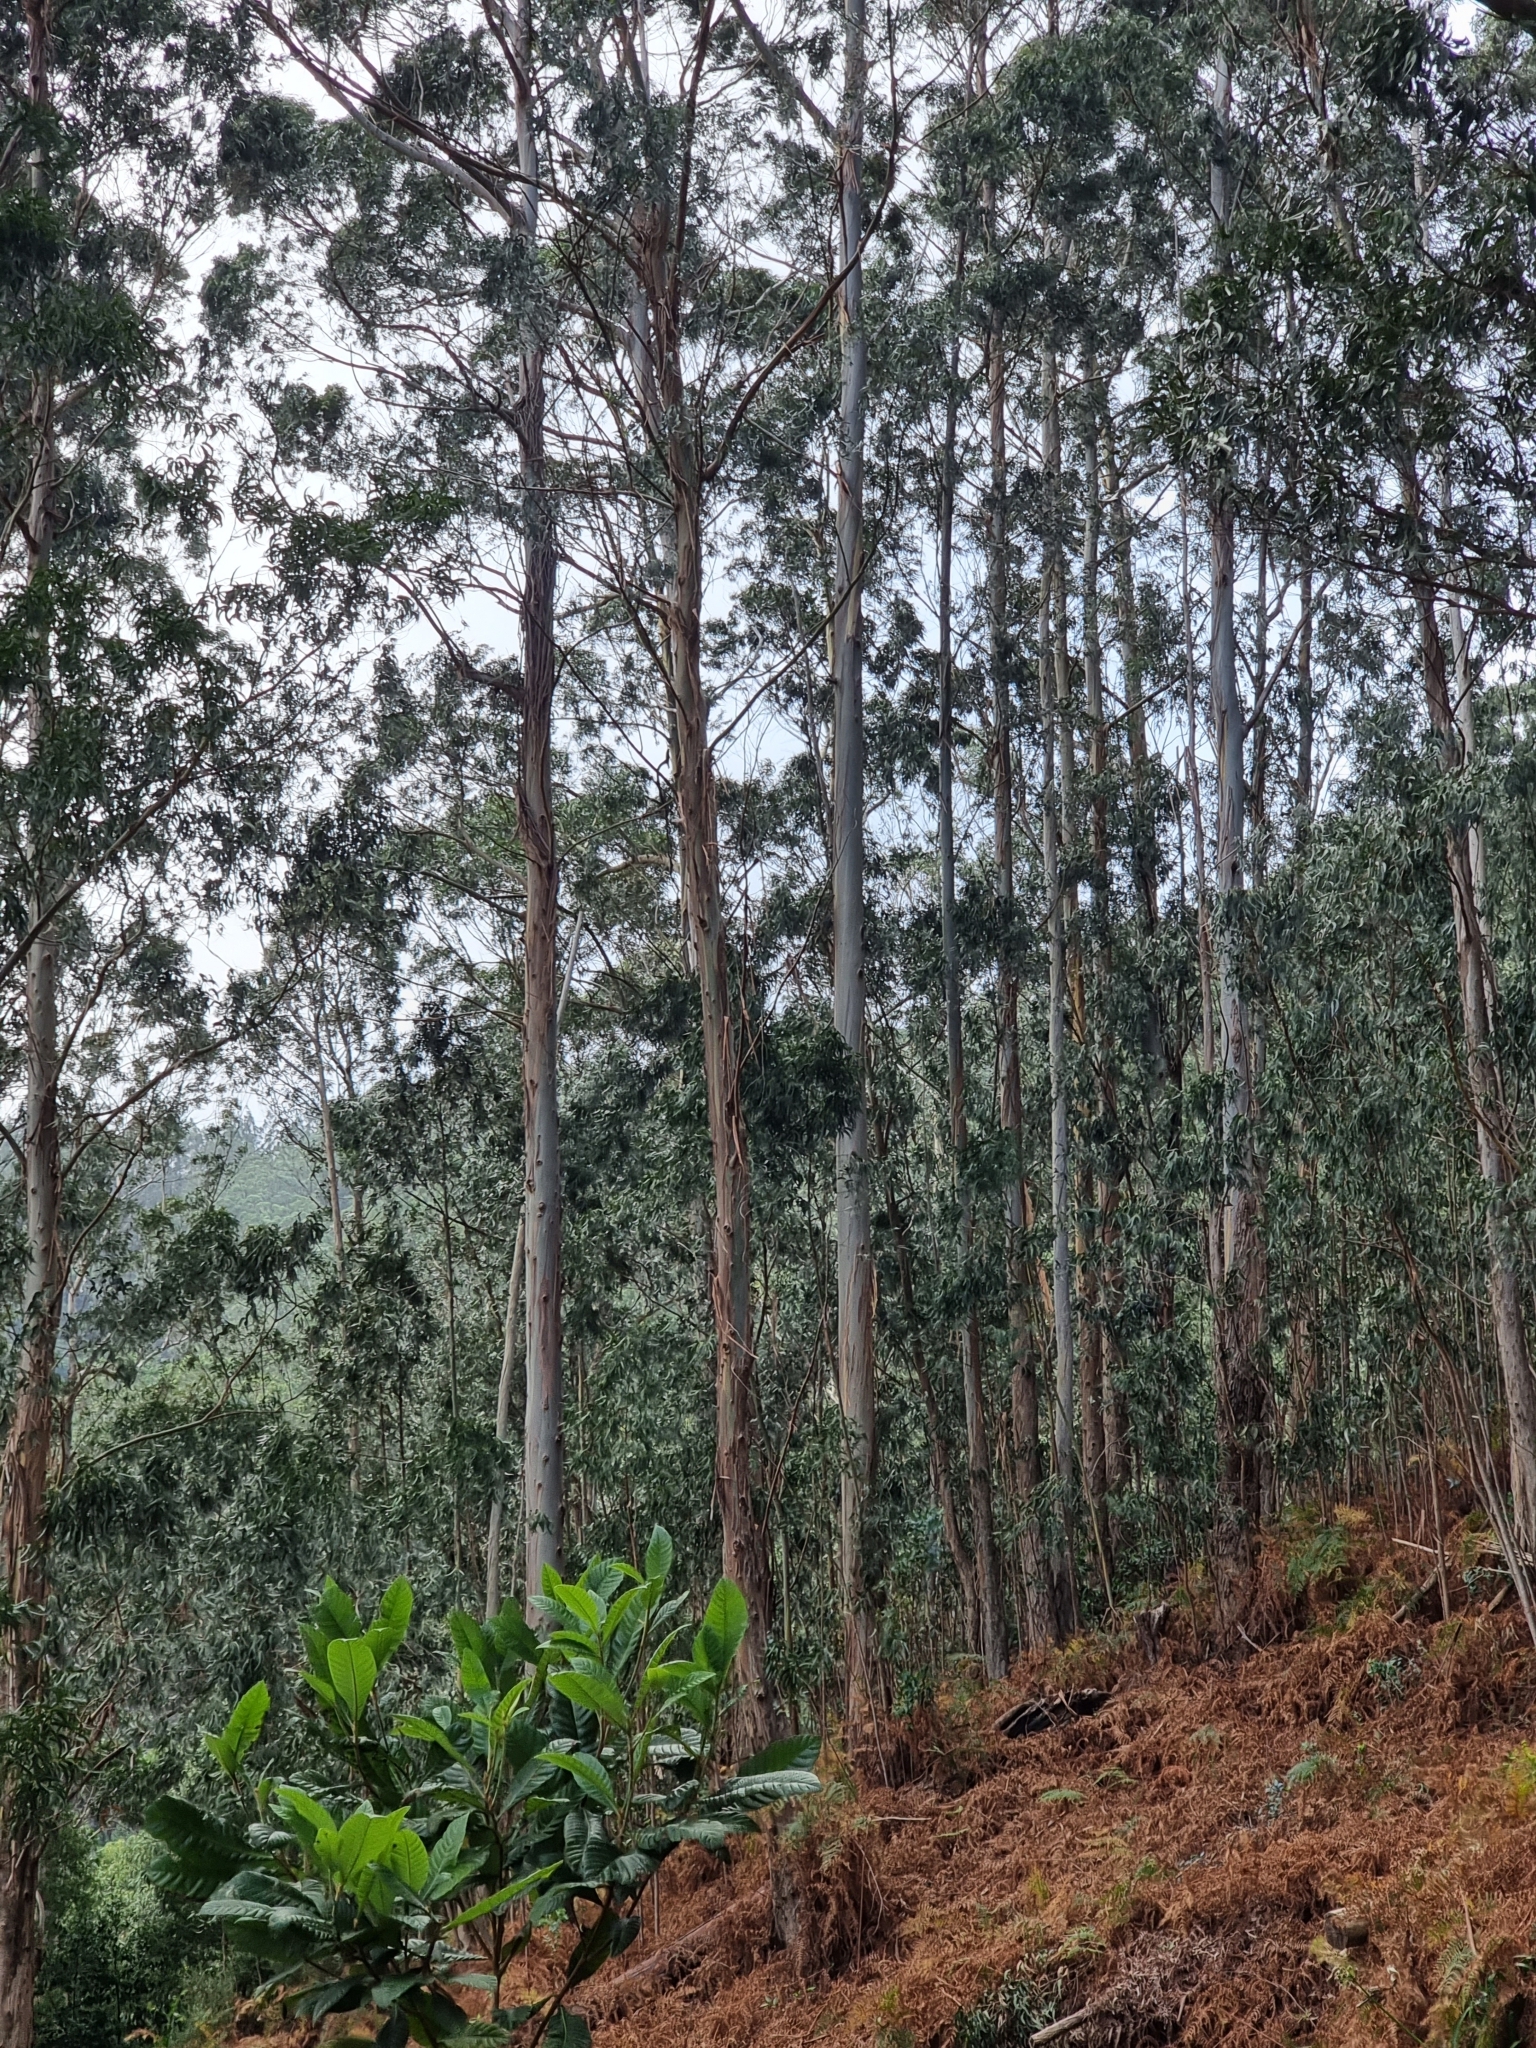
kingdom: Plantae
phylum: Tracheophyta
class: Magnoliopsida
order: Myrtales
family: Myrtaceae
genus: Eucalyptus
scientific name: Eucalyptus globulus
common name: Southern blue-gum
